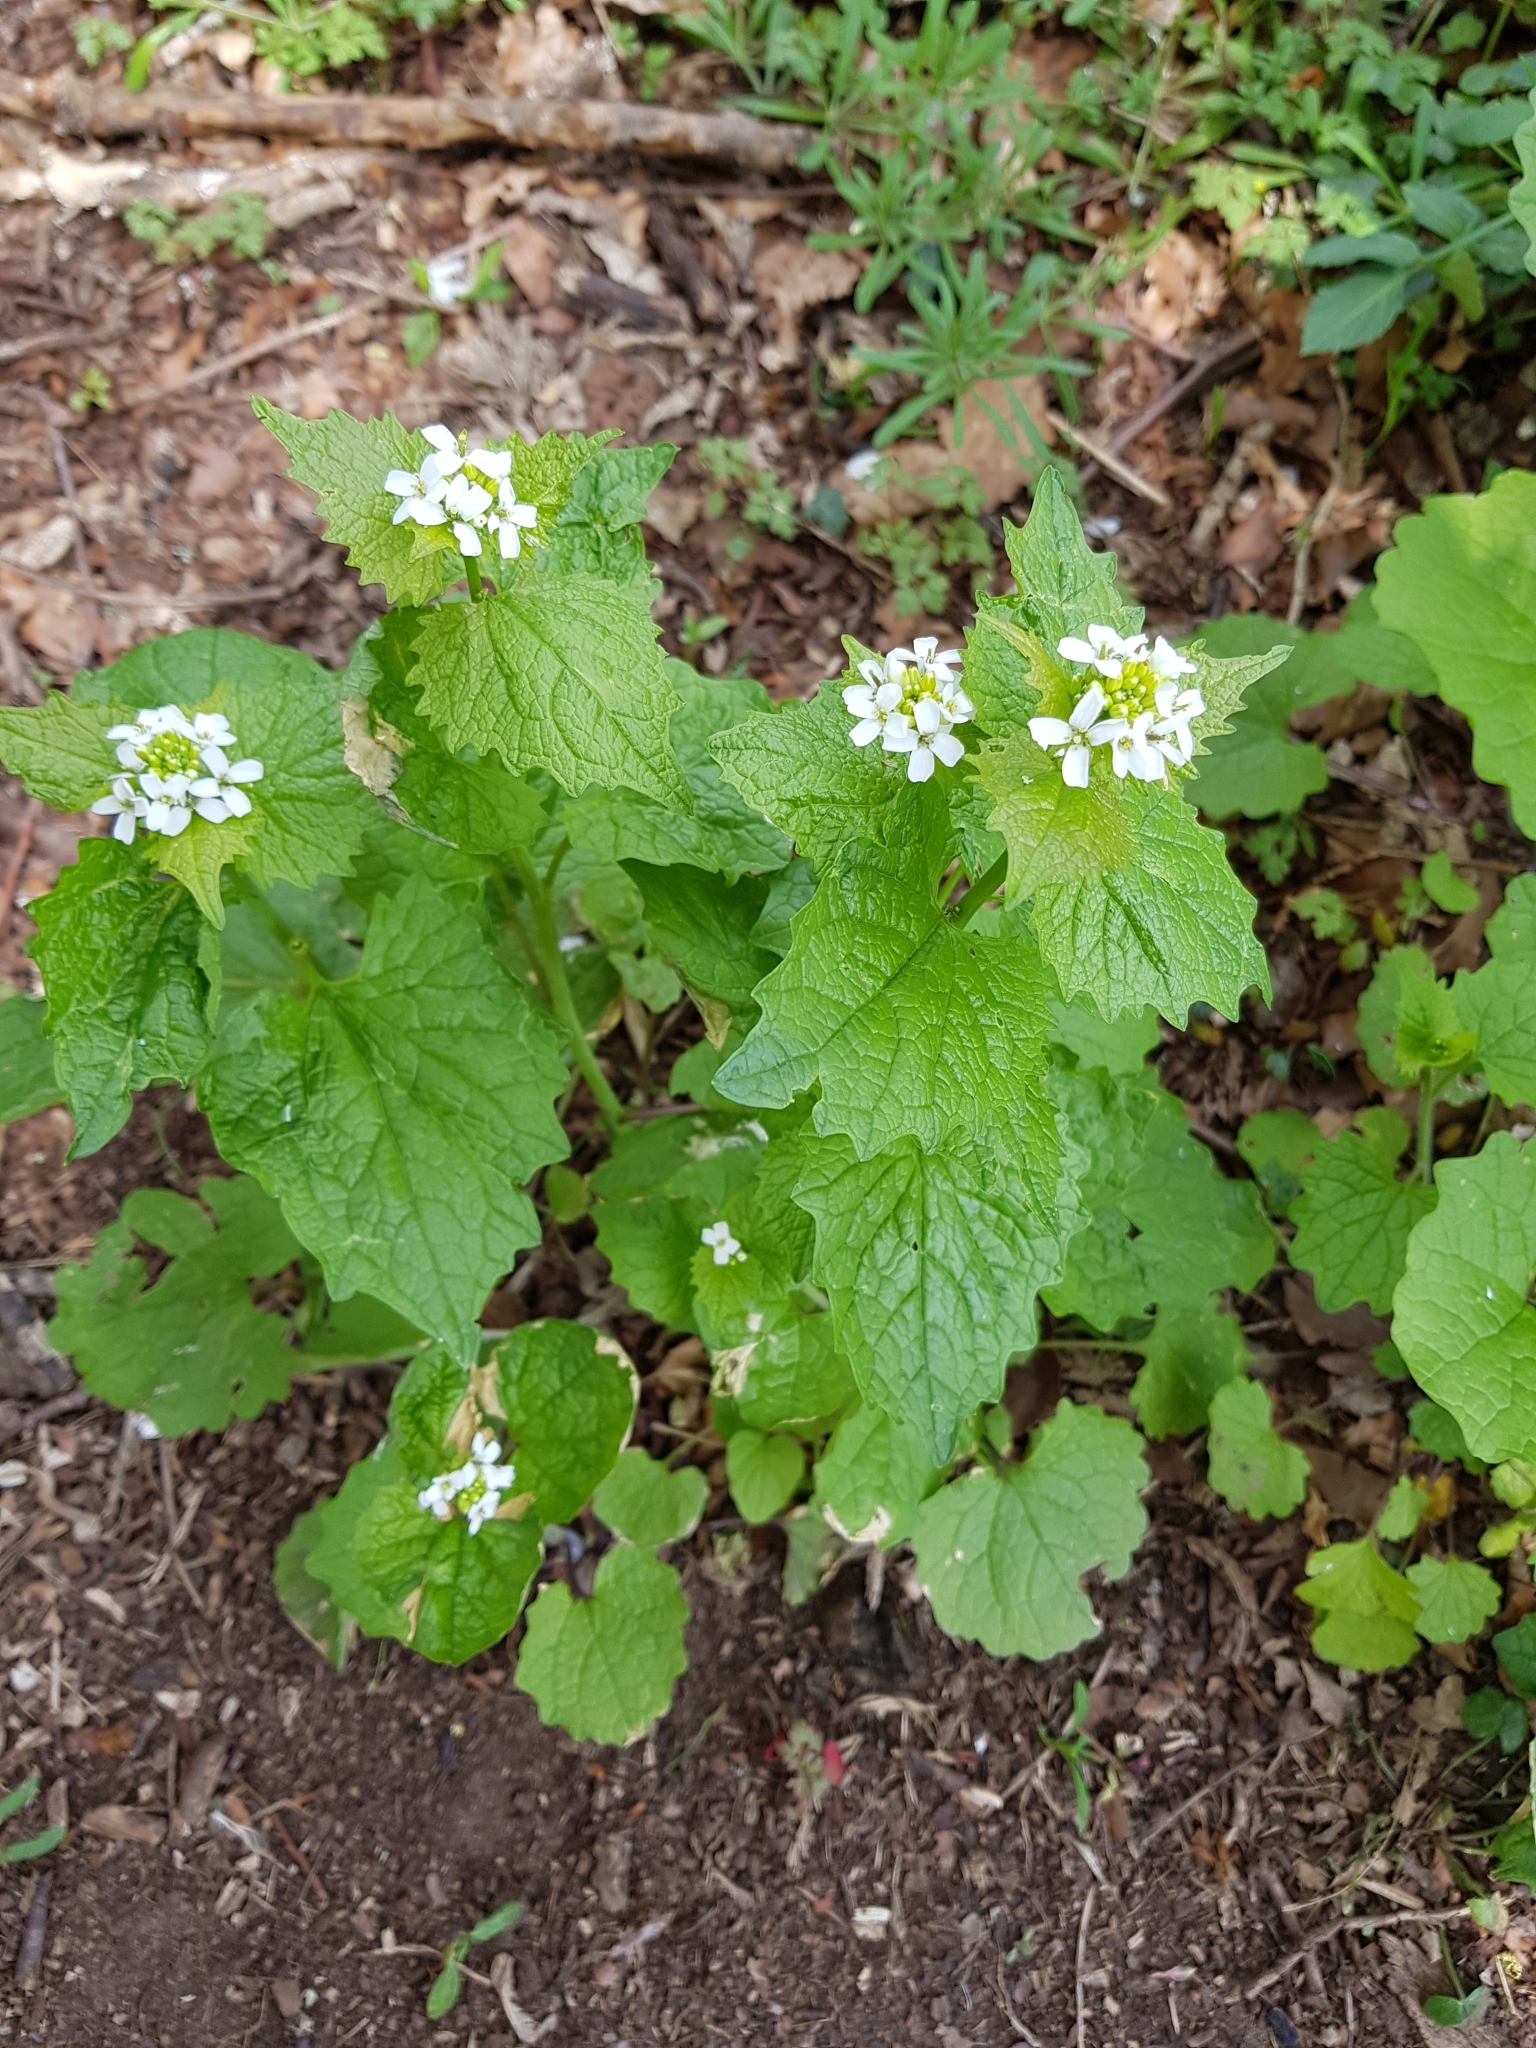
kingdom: Plantae
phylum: Tracheophyta
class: Magnoliopsida
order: Brassicales
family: Brassicaceae
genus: Alliaria
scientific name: Alliaria petiolata
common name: Garlic mustard
